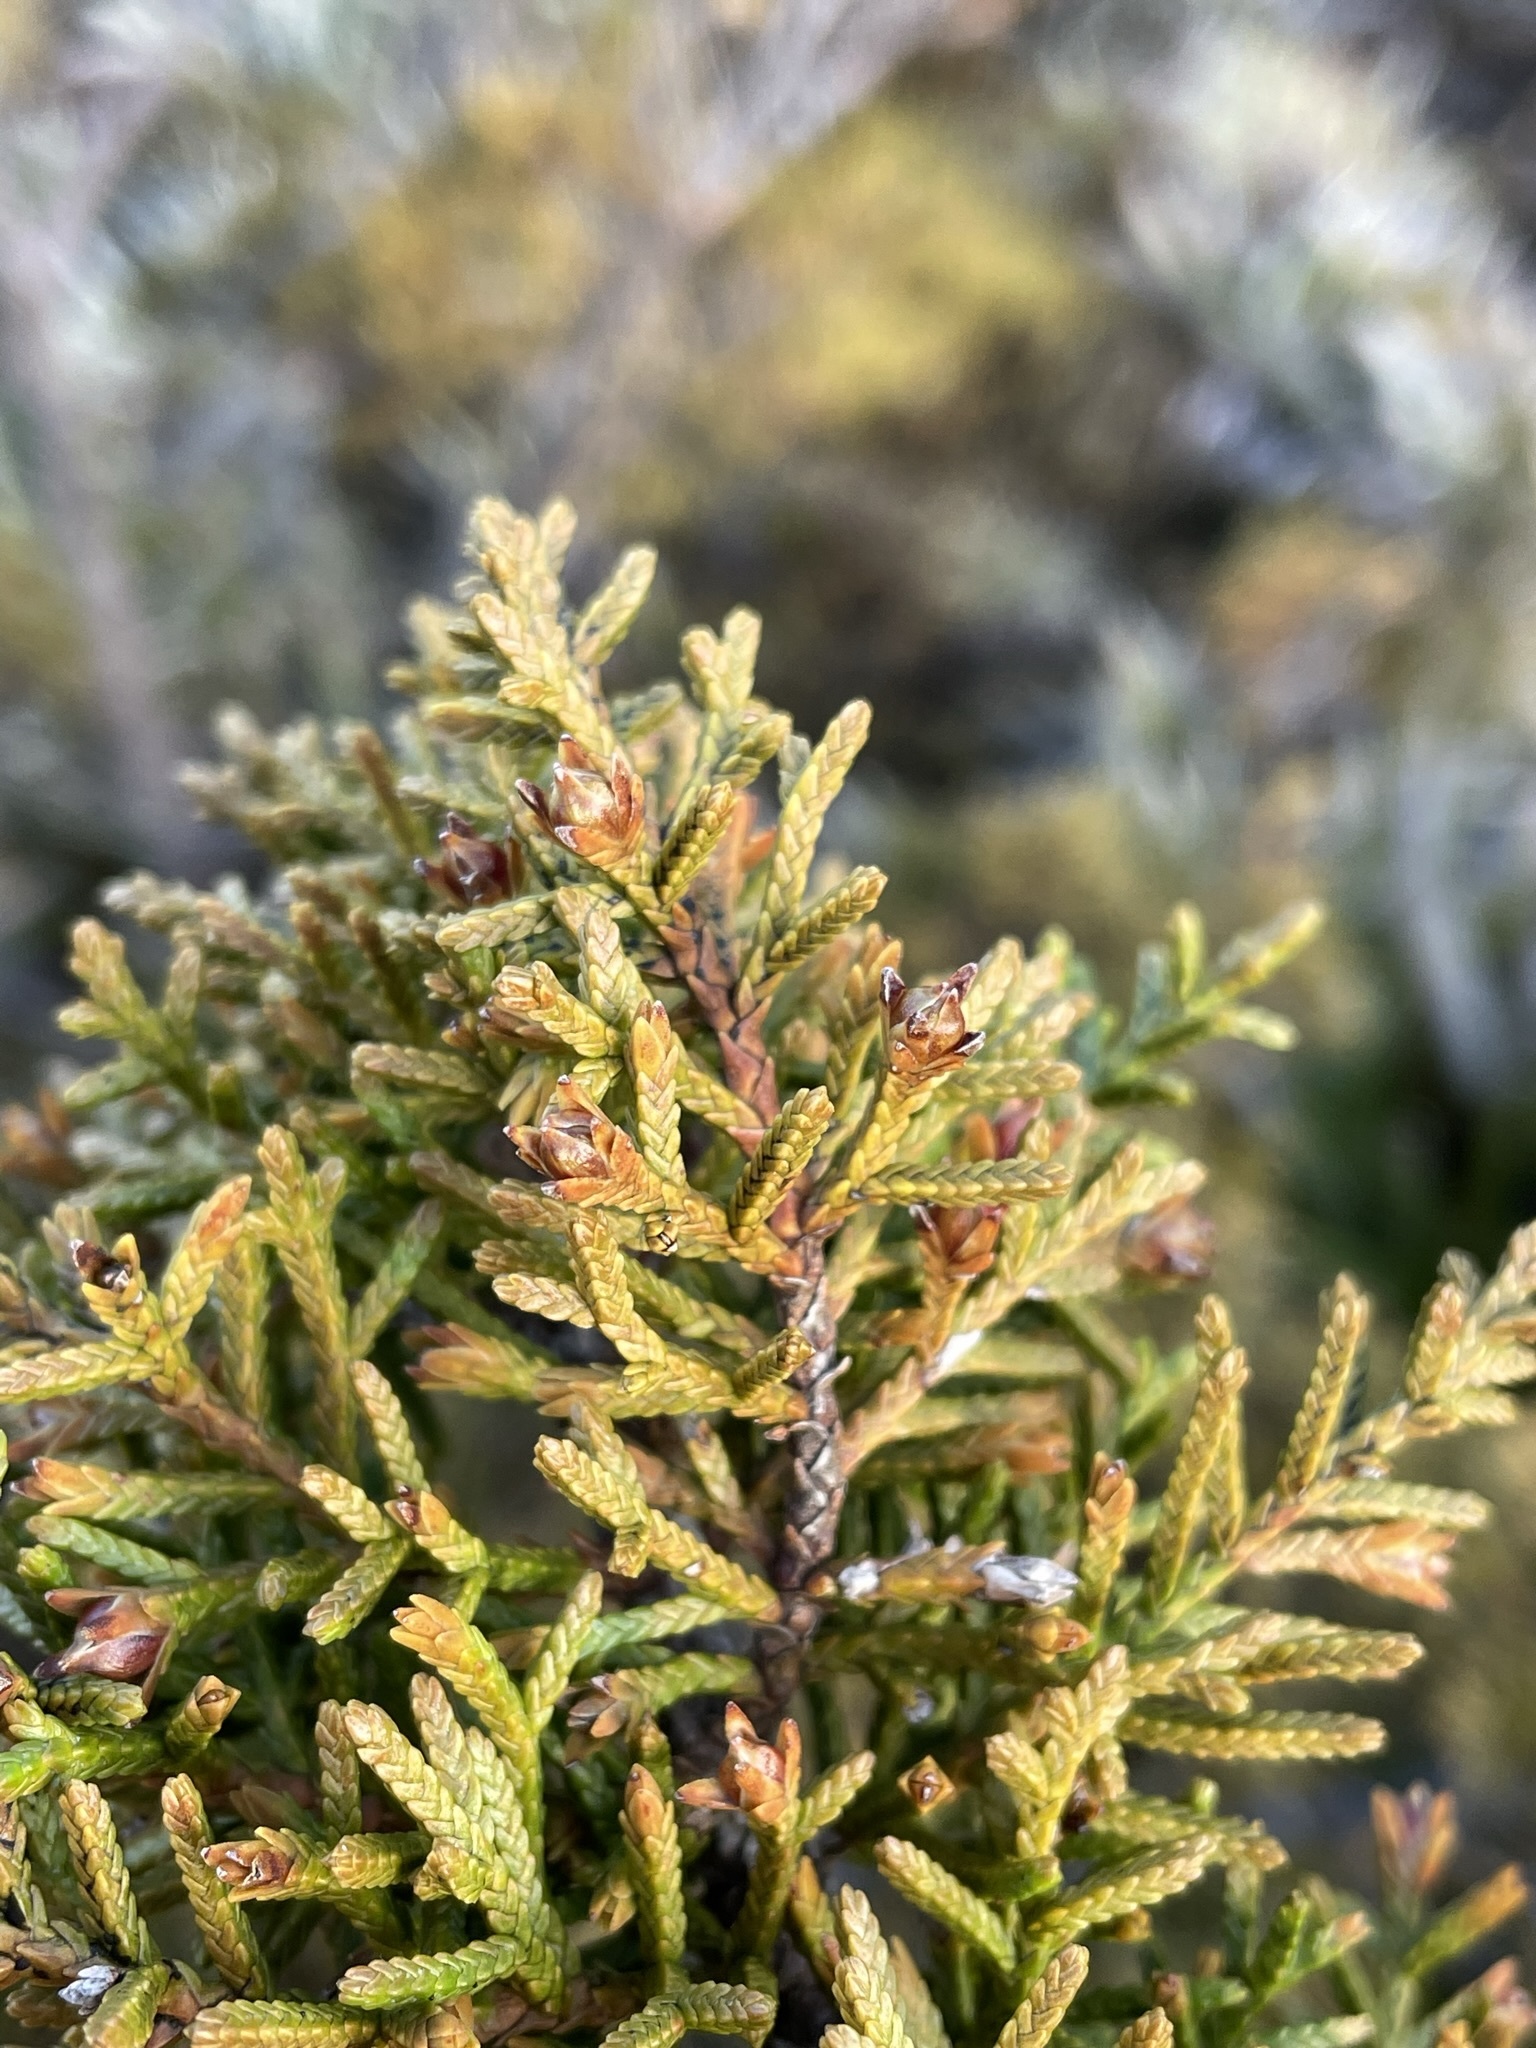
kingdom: Plantae
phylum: Tracheophyta
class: Pinopsida
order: Pinales
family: Cupressaceae
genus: Diselma
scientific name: Diselma archeri
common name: Cheshunt pine
